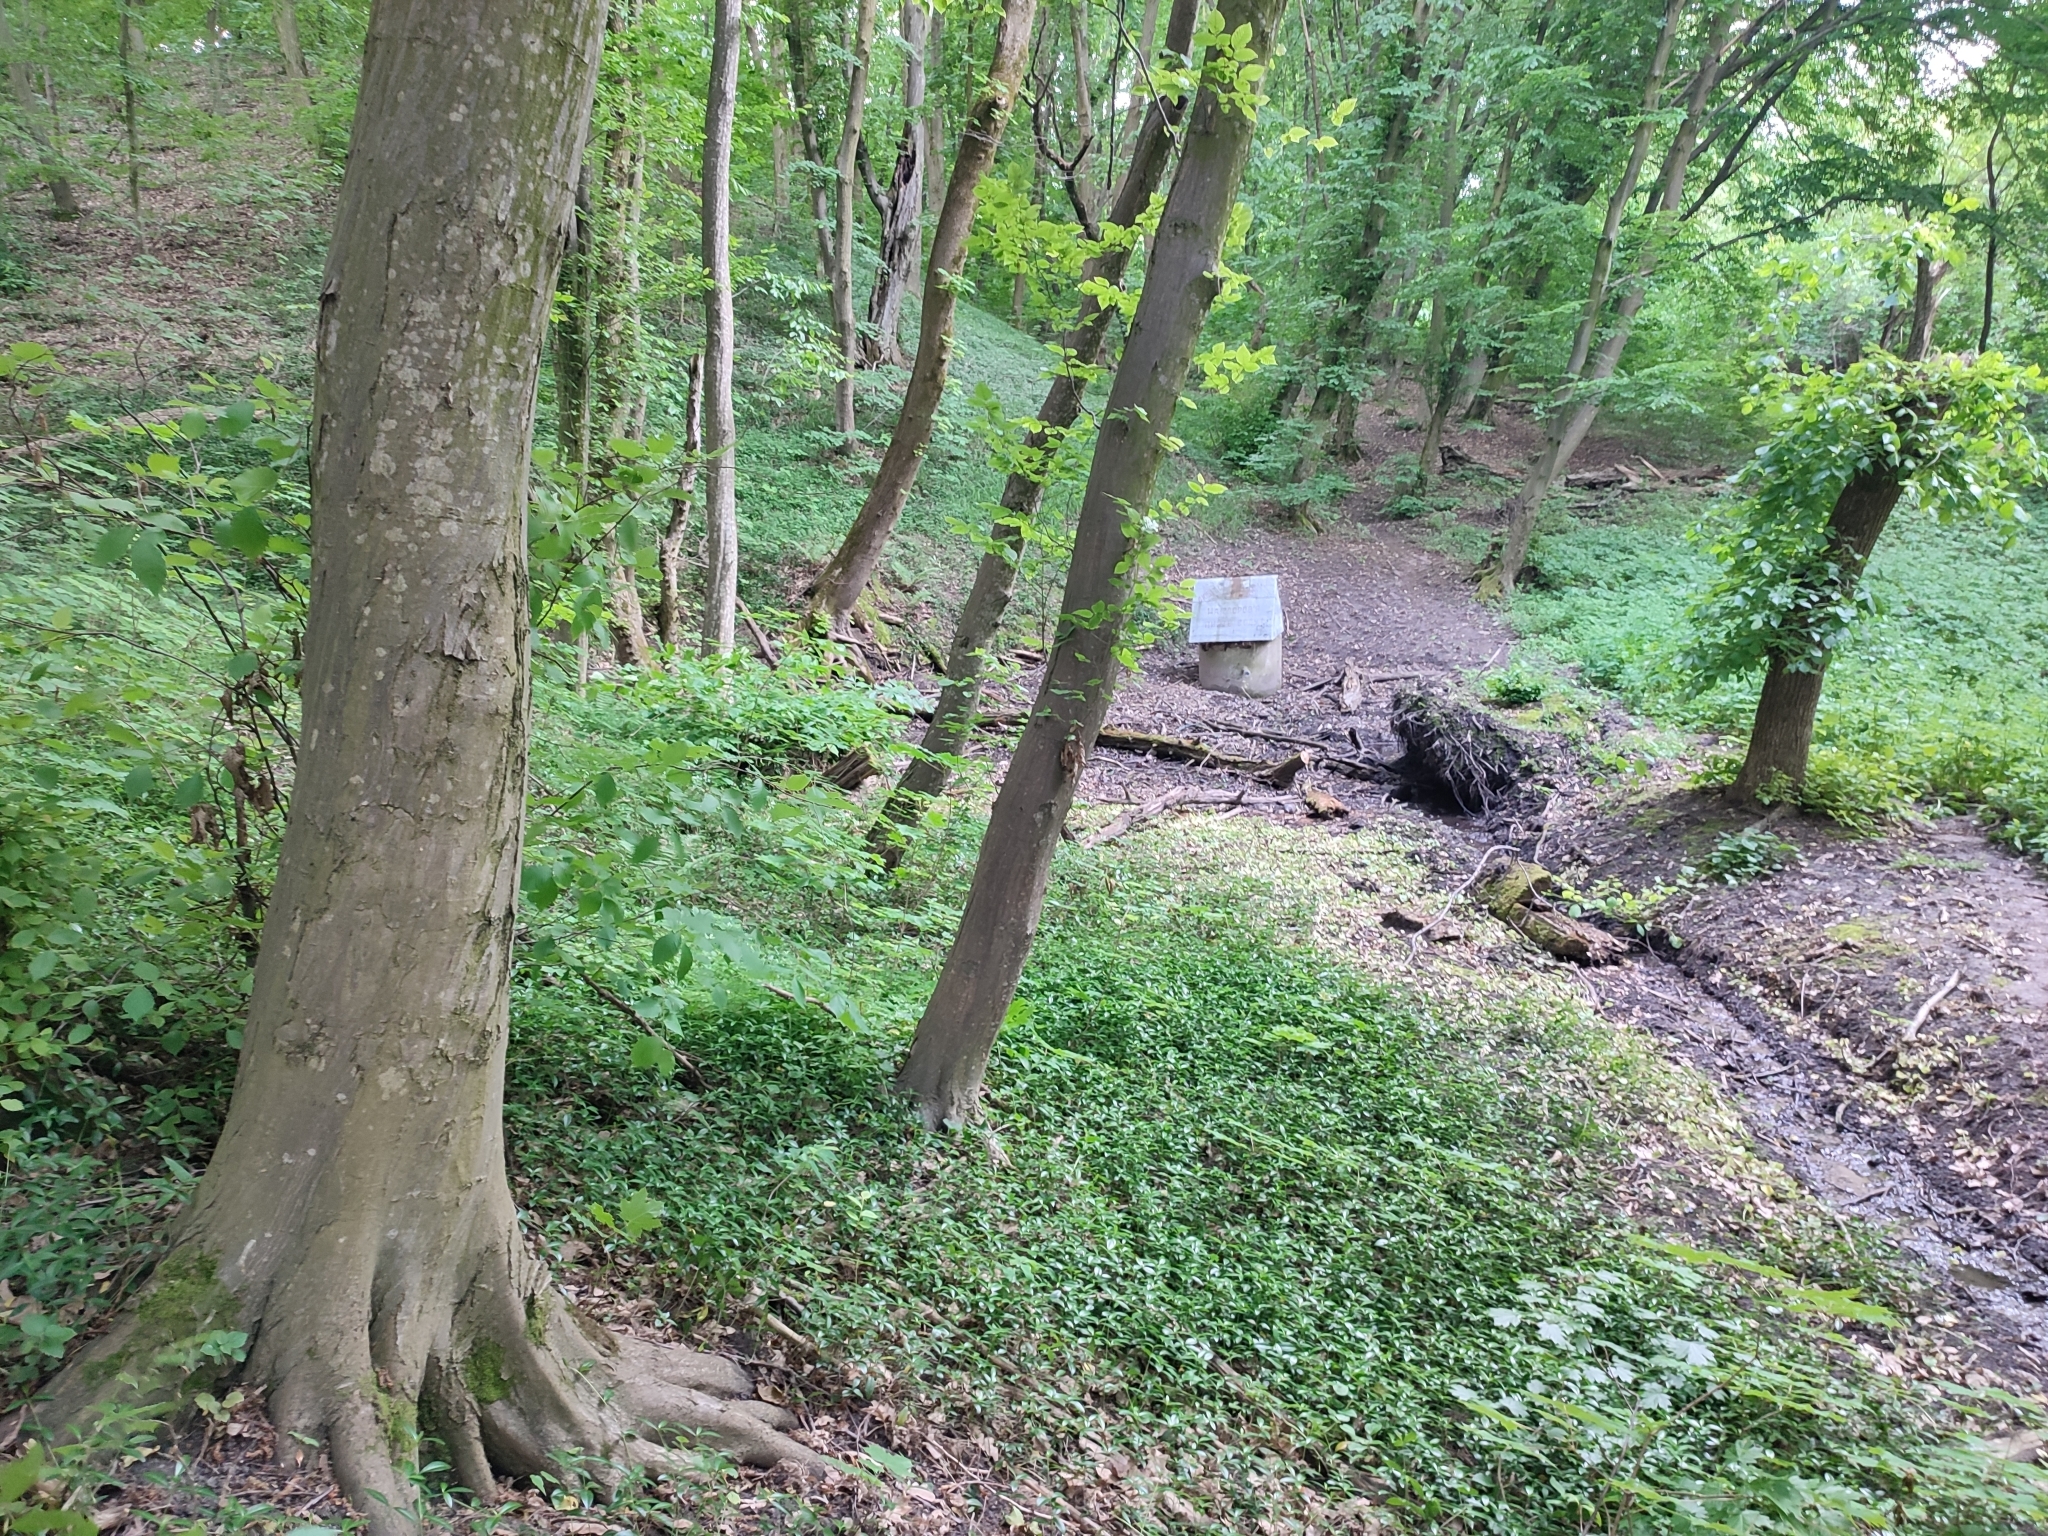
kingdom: Plantae
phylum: Tracheophyta
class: Magnoliopsida
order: Fagales
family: Betulaceae
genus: Carpinus
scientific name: Carpinus betulus
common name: Hornbeam
